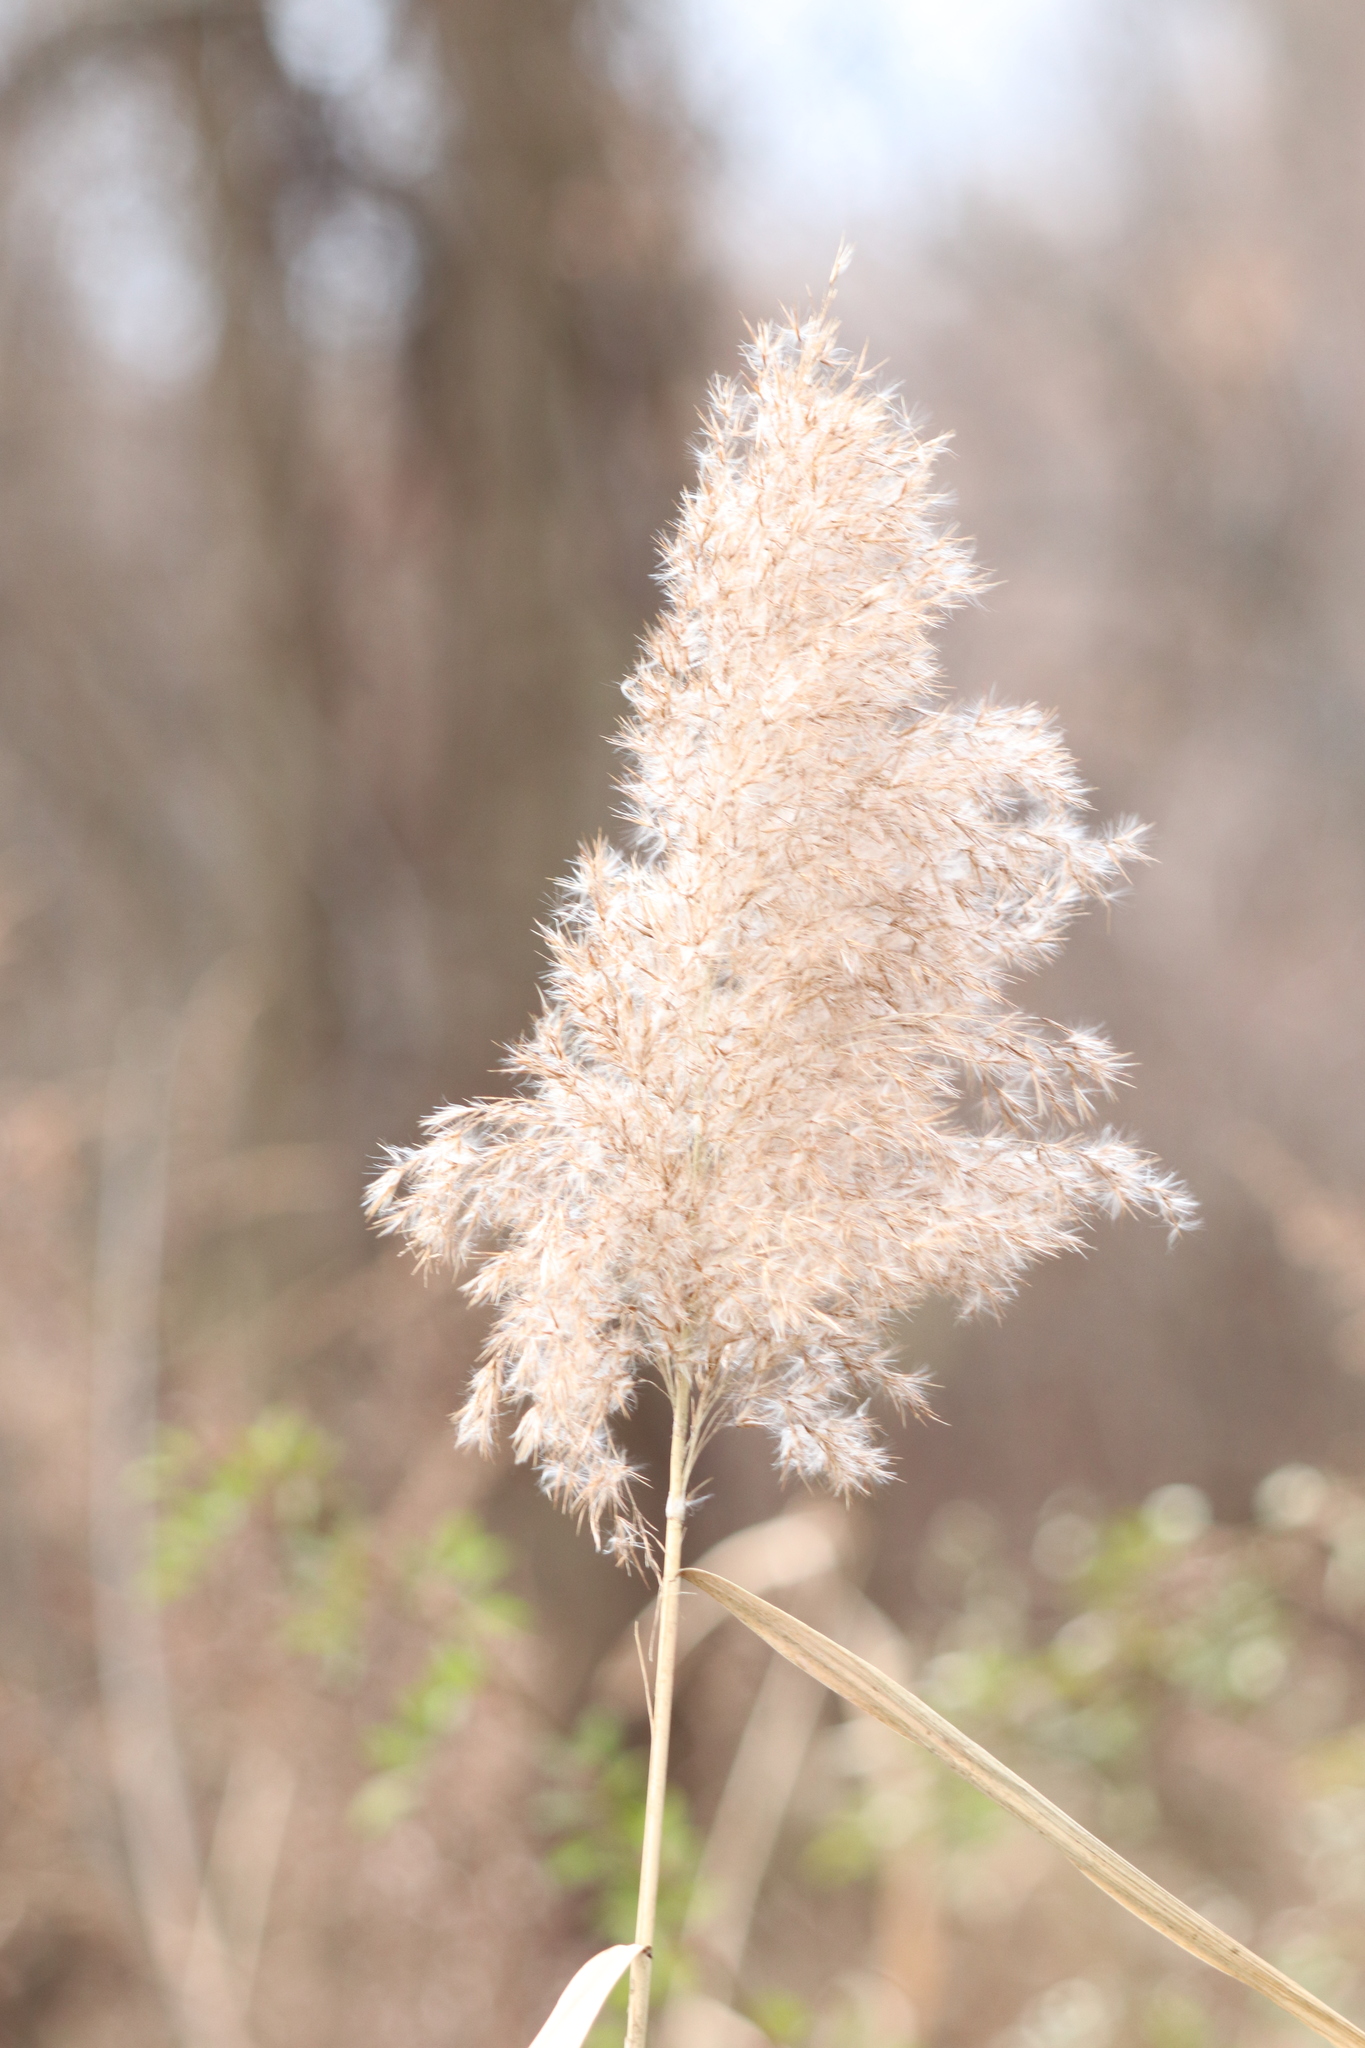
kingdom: Plantae
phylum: Tracheophyta
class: Liliopsida
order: Poales
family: Poaceae
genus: Phragmites
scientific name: Phragmites australis
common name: Common reed
